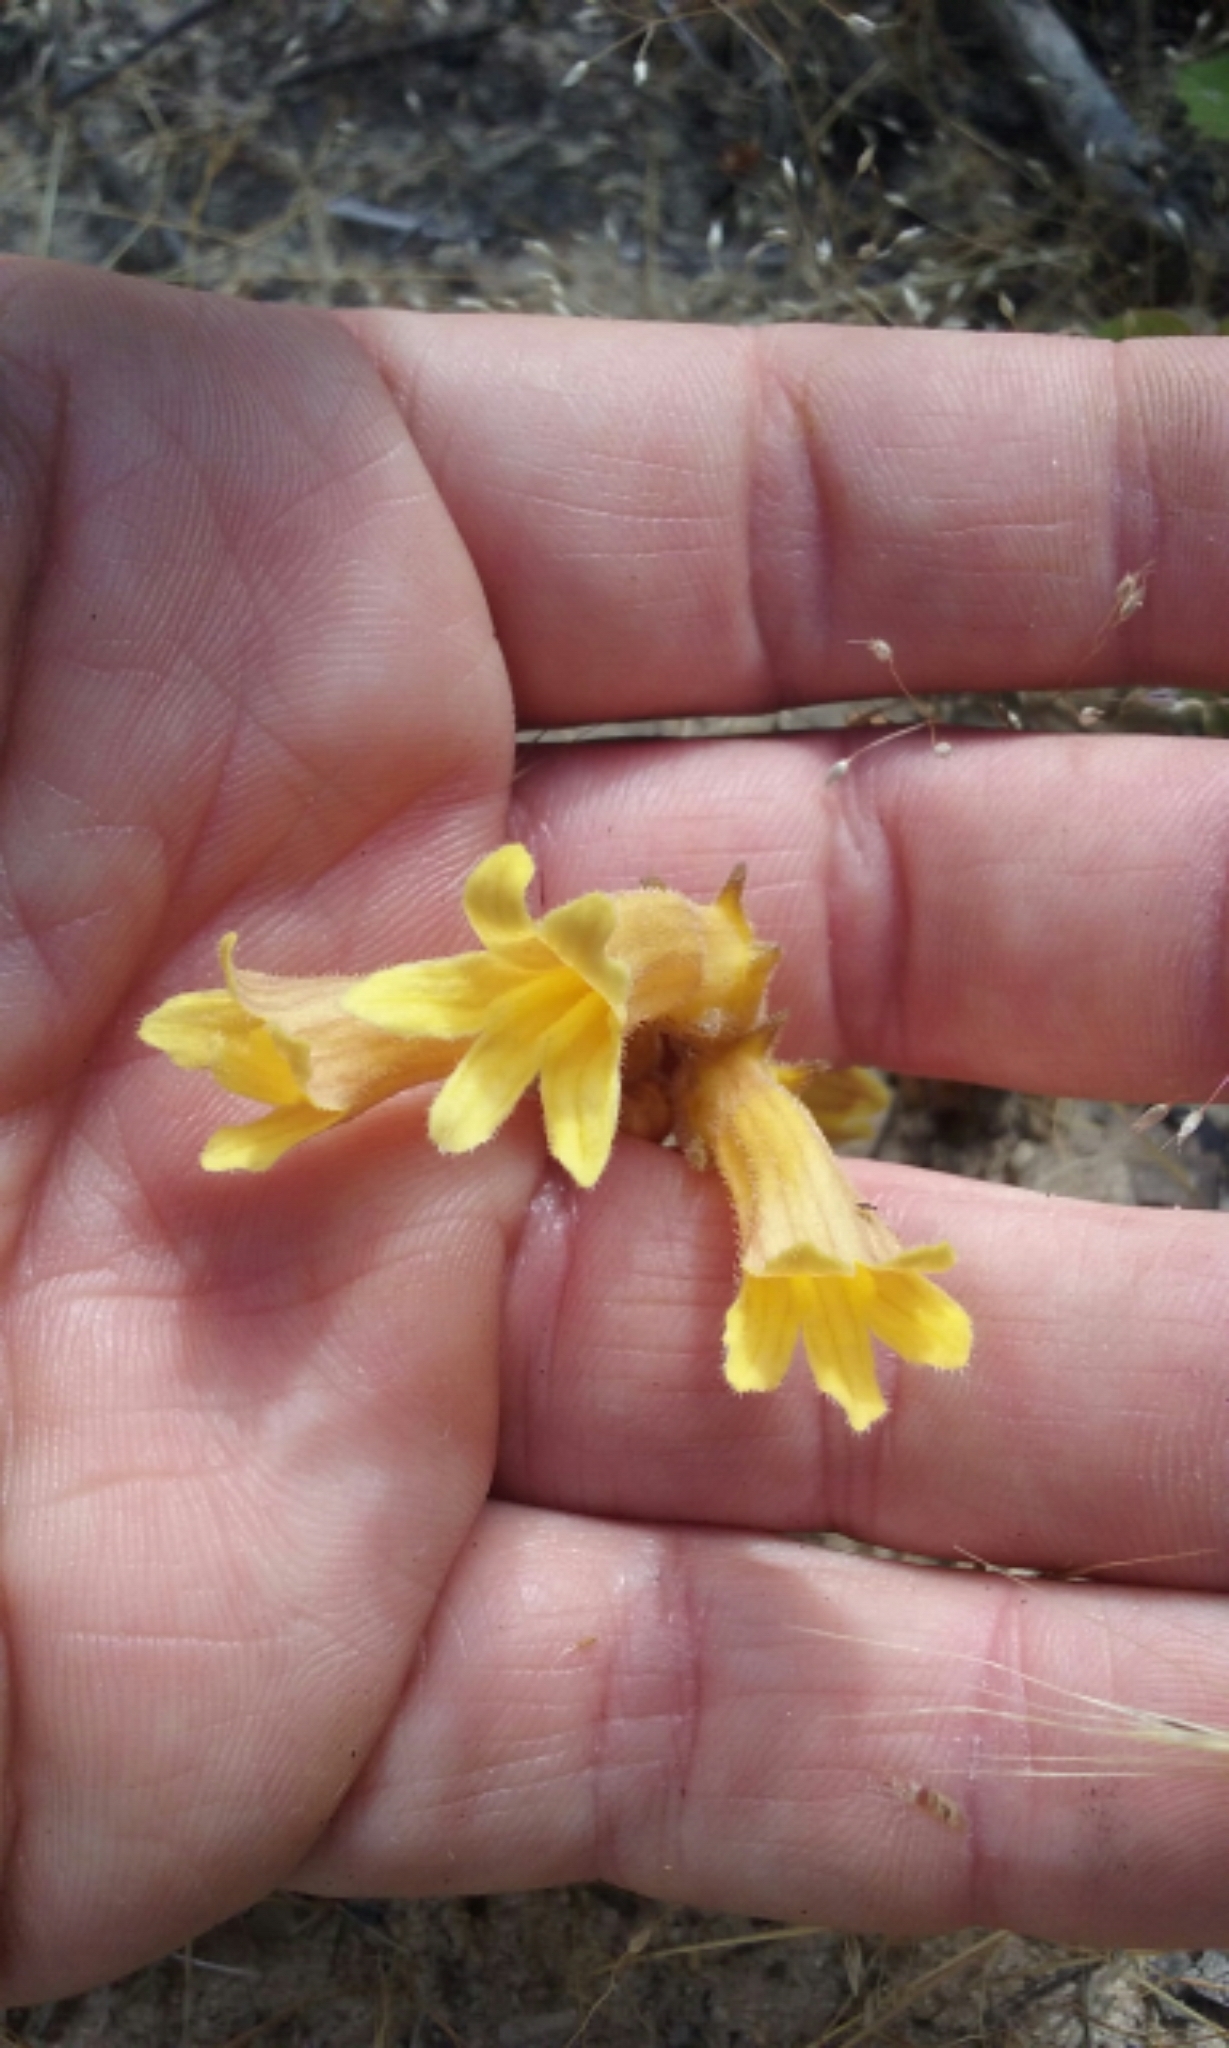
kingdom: Plantae
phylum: Tracheophyta
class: Magnoliopsida
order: Lamiales
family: Orobanchaceae
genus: Aphyllon
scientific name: Aphyllon franciscanum
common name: San francisco broomrape
